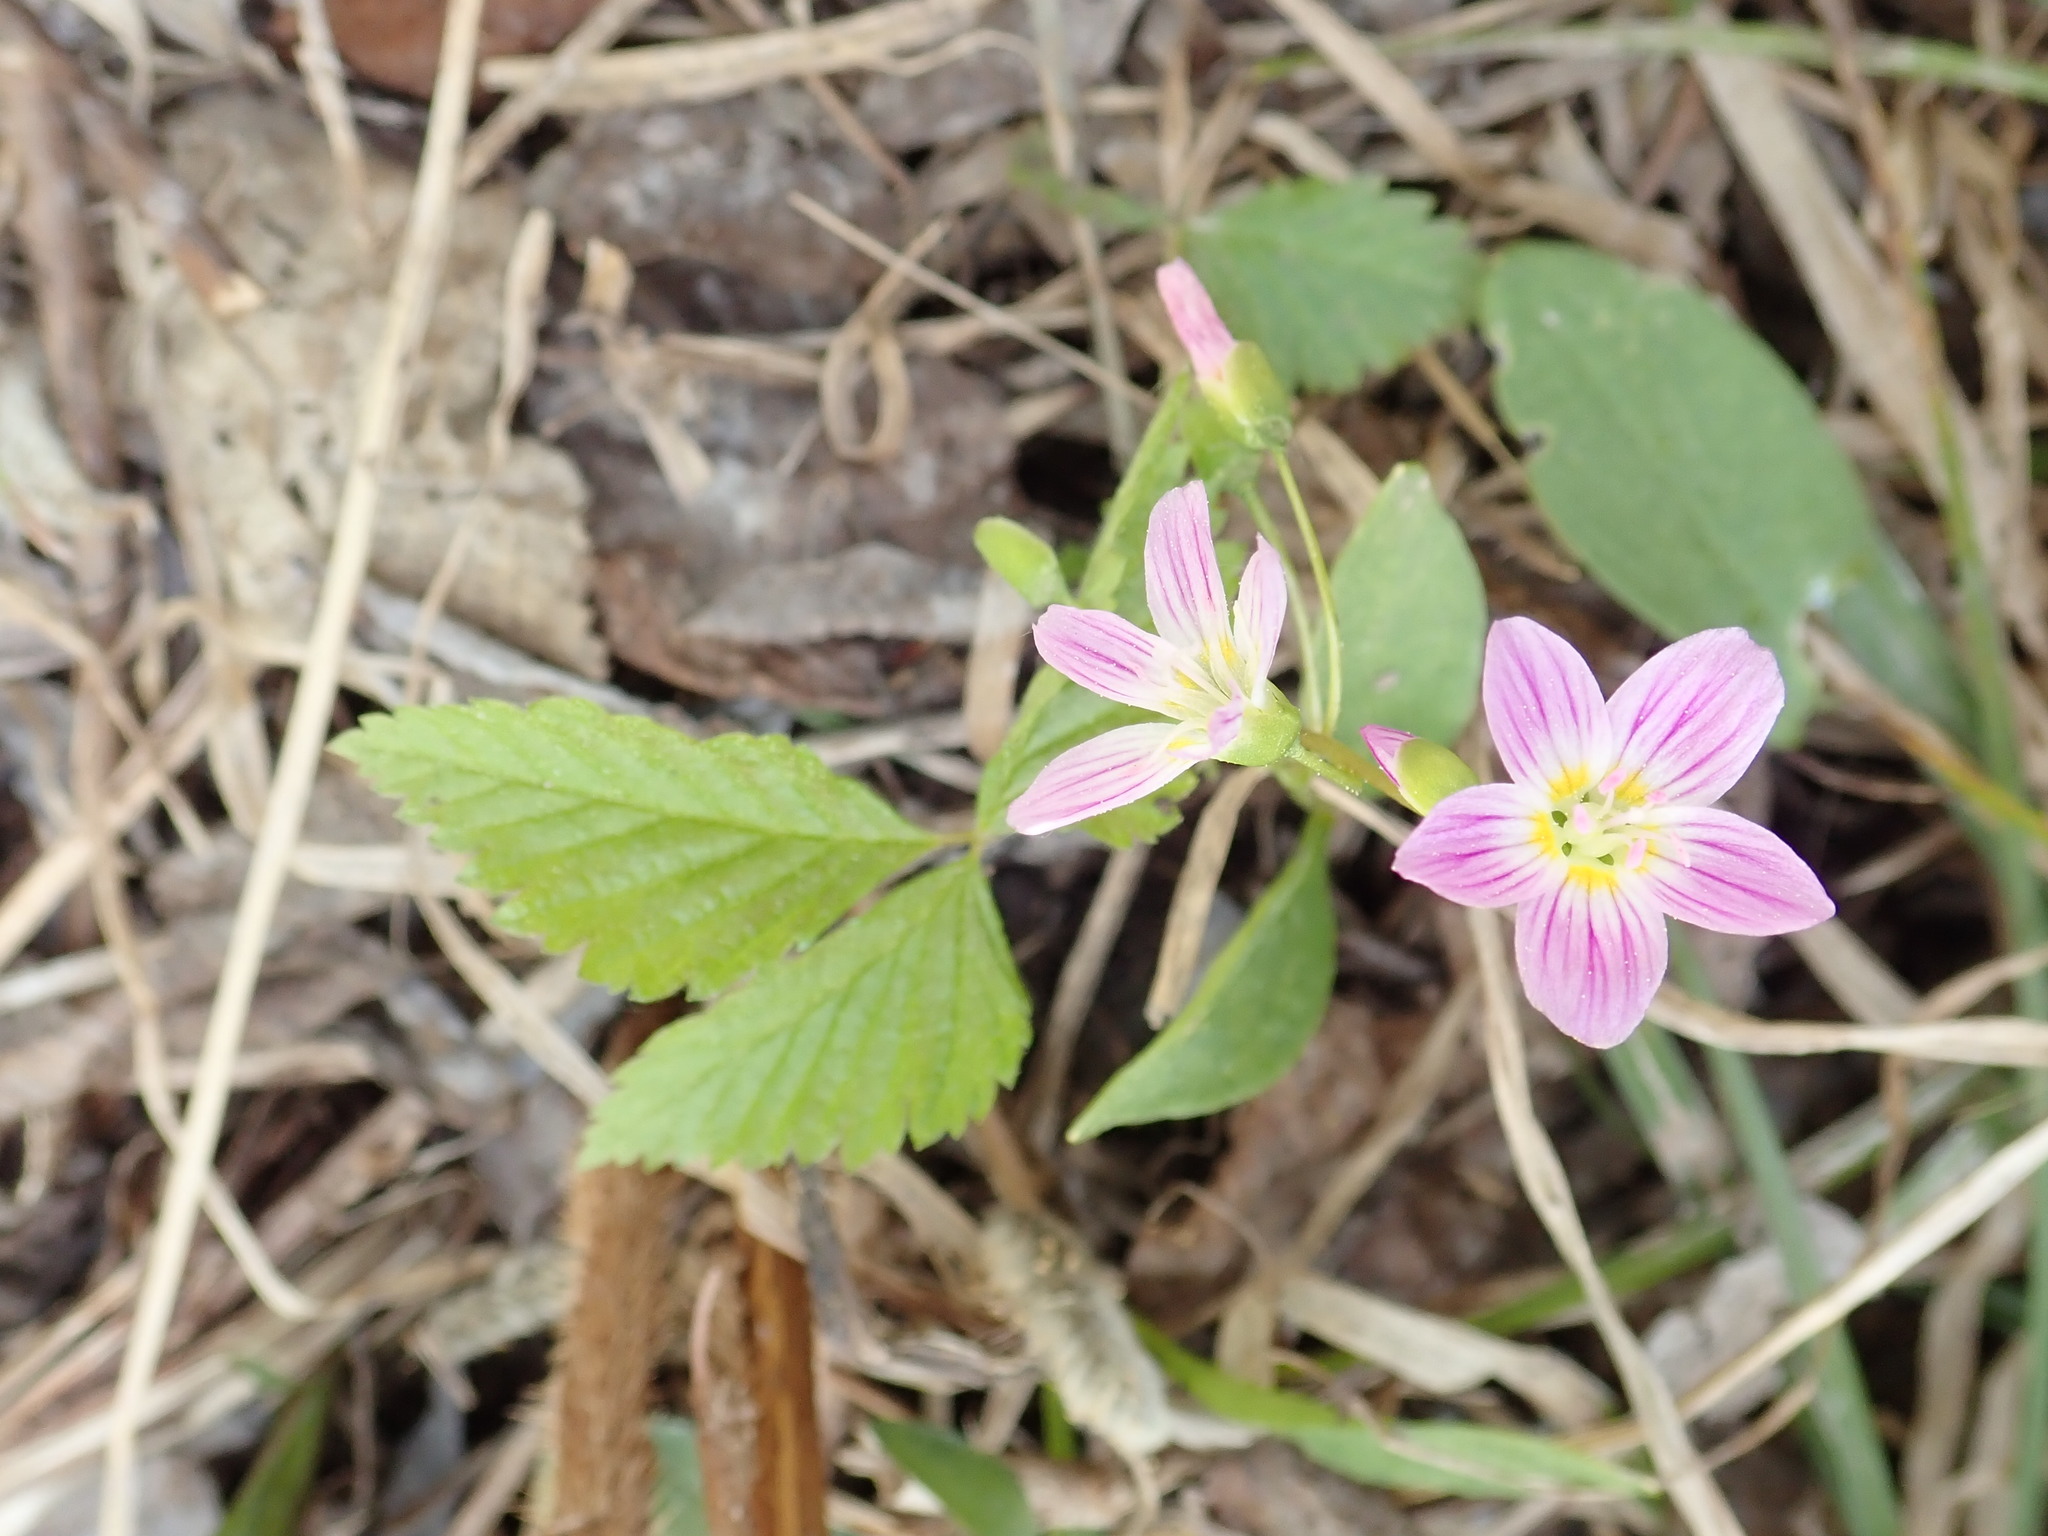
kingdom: Plantae
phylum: Tracheophyta
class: Magnoliopsida
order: Caryophyllales
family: Montiaceae
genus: Claytonia
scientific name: Claytonia caroliniana
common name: Carolina spring beauty
